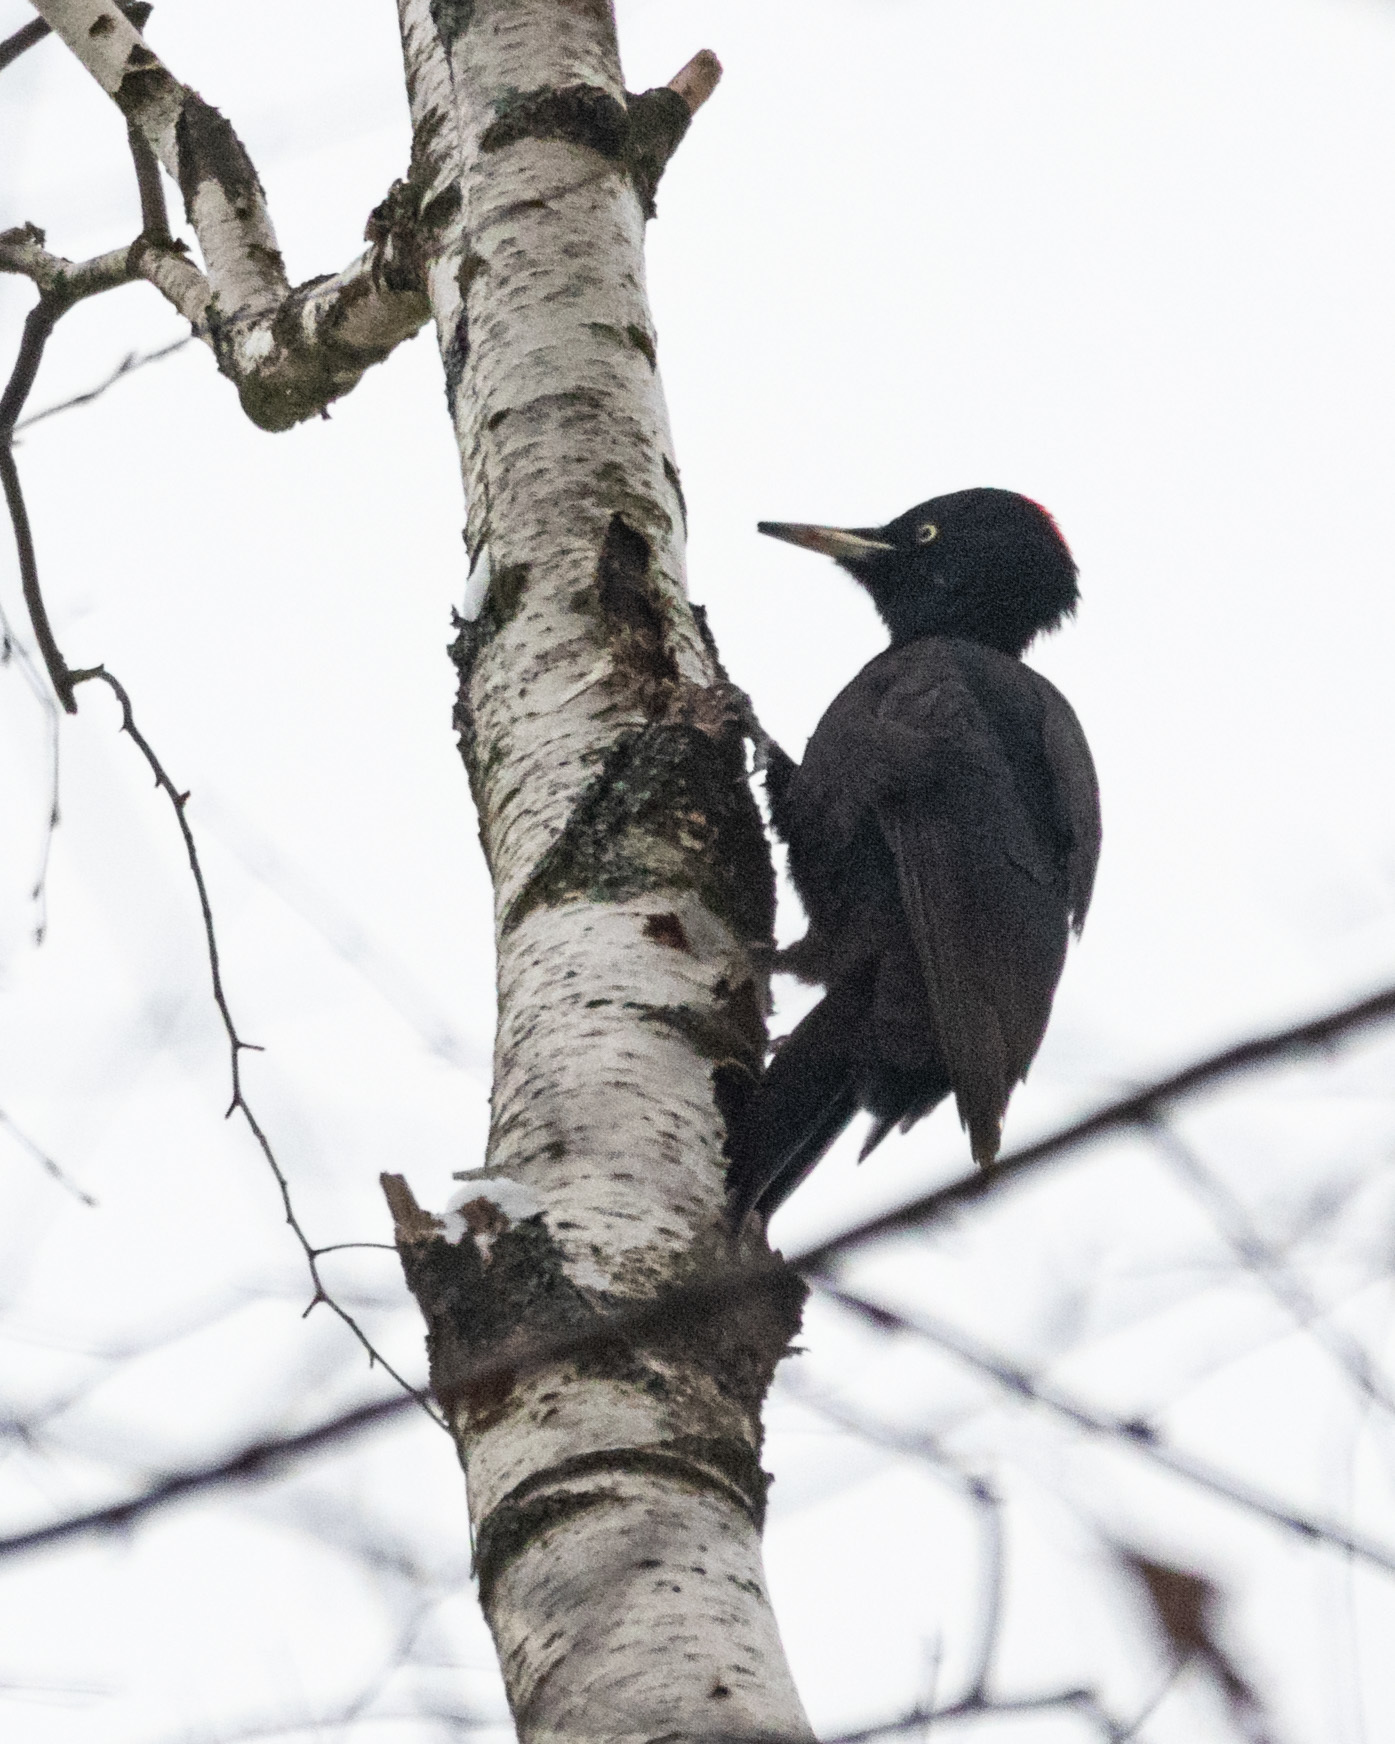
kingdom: Animalia
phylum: Chordata
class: Aves
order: Piciformes
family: Picidae
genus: Dryocopus
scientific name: Dryocopus martius
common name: Black woodpecker
